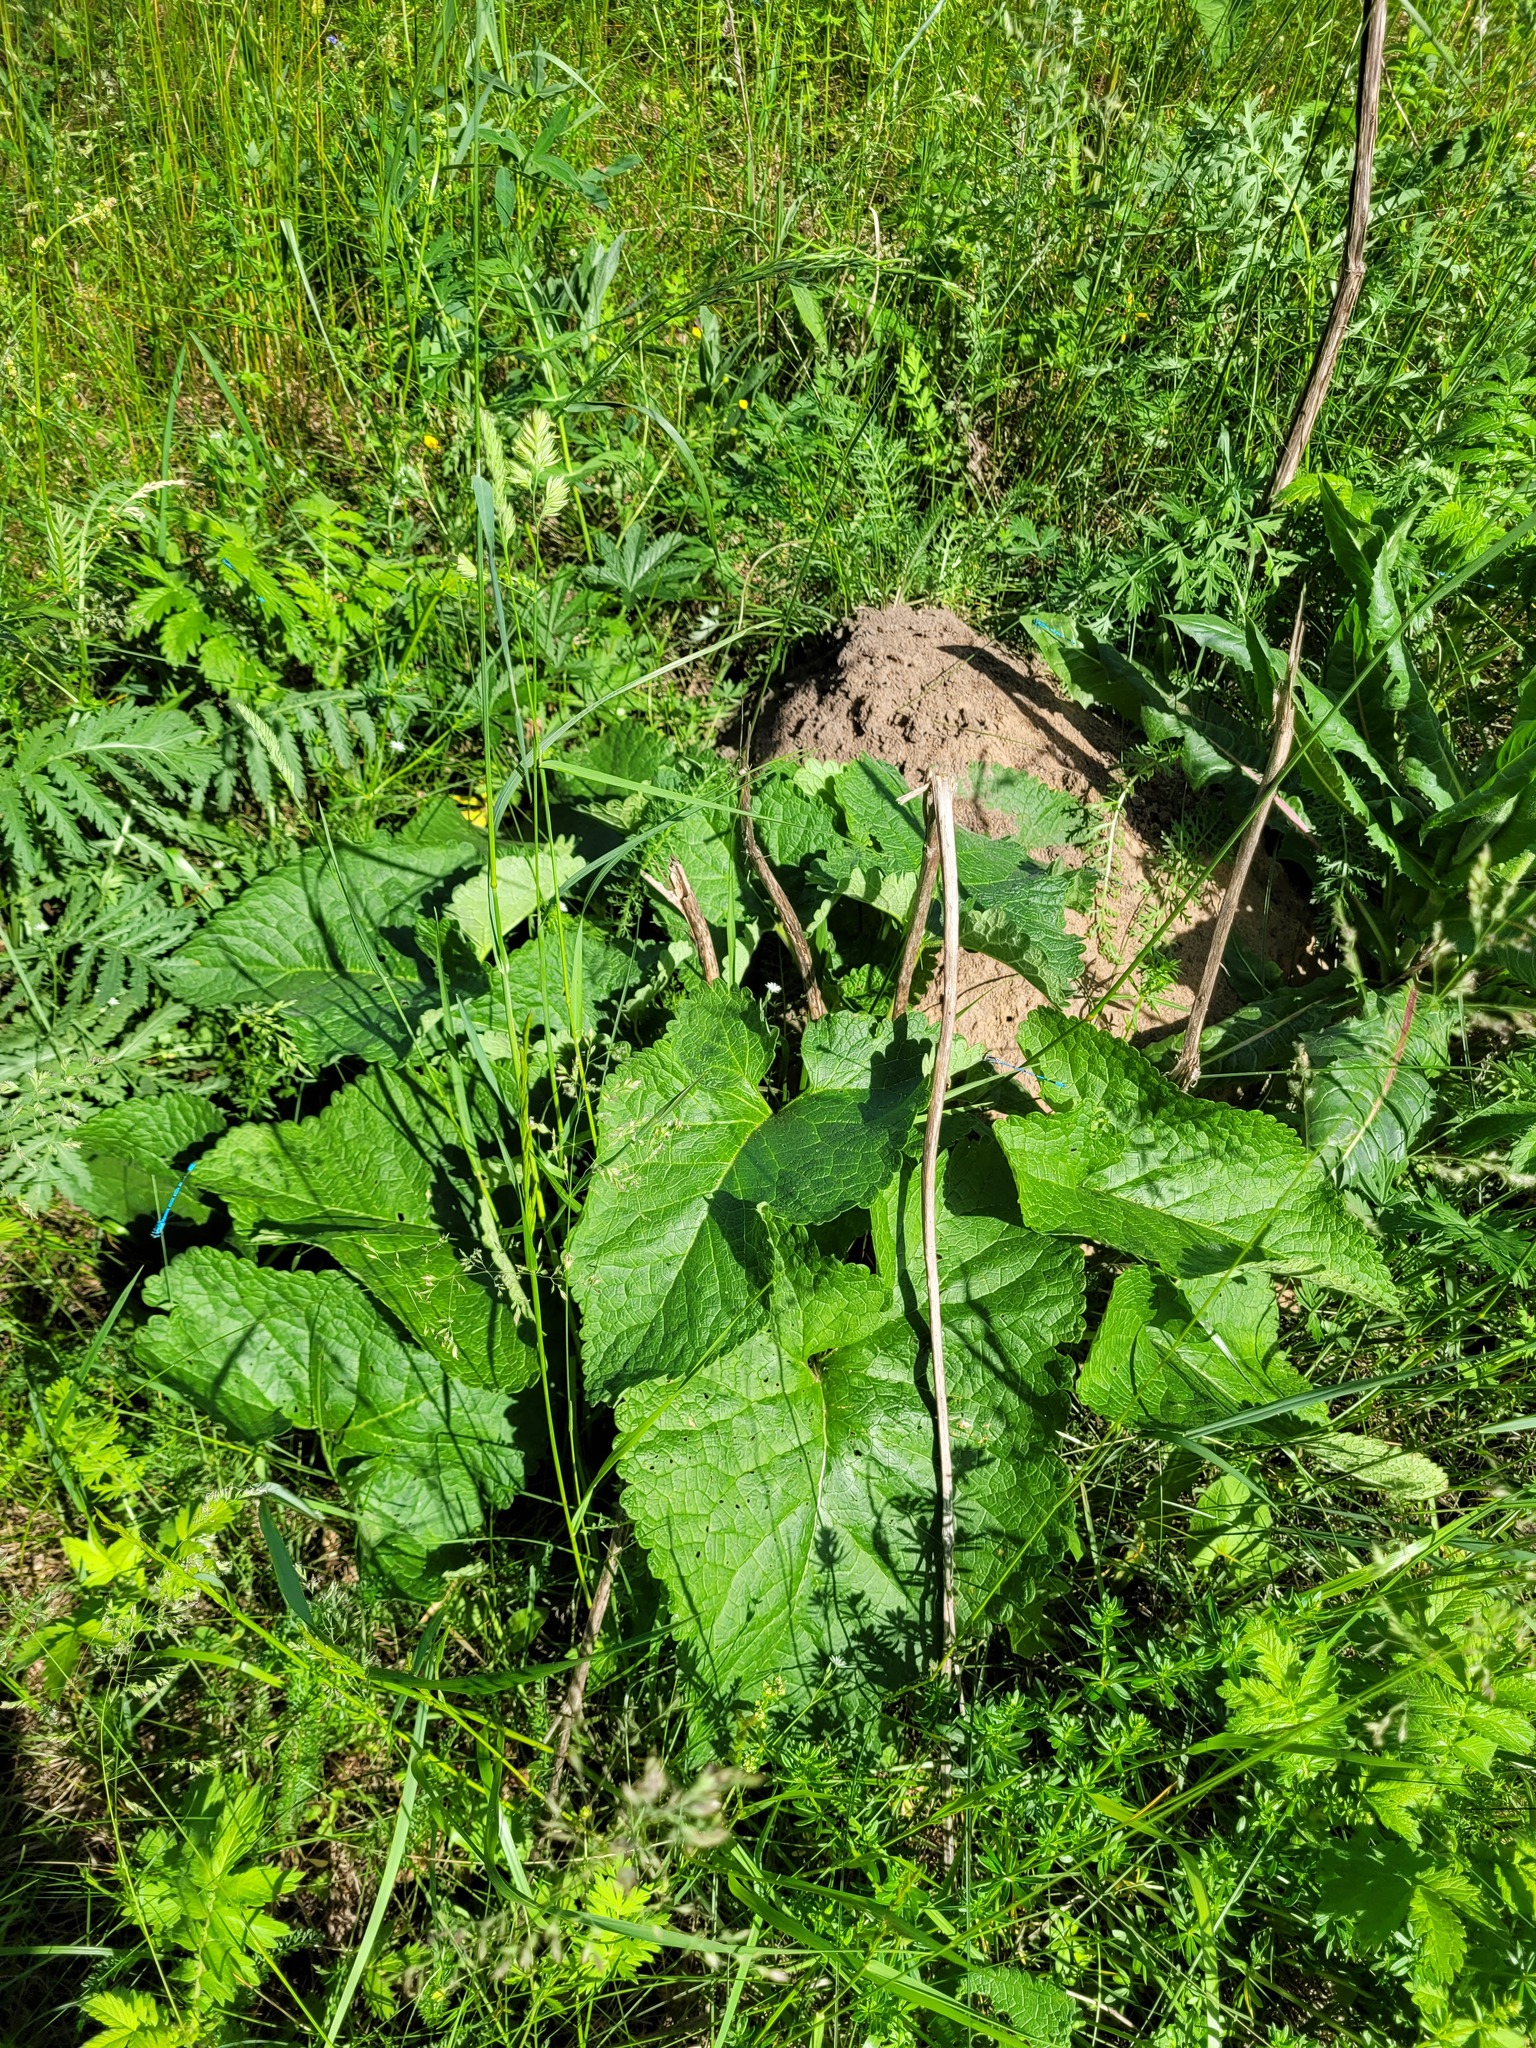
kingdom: Plantae
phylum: Tracheophyta
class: Magnoliopsida
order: Lamiales
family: Lamiaceae
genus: Phlomoides
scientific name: Phlomoides tuberosa
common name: Tuberous jerusalem sage
